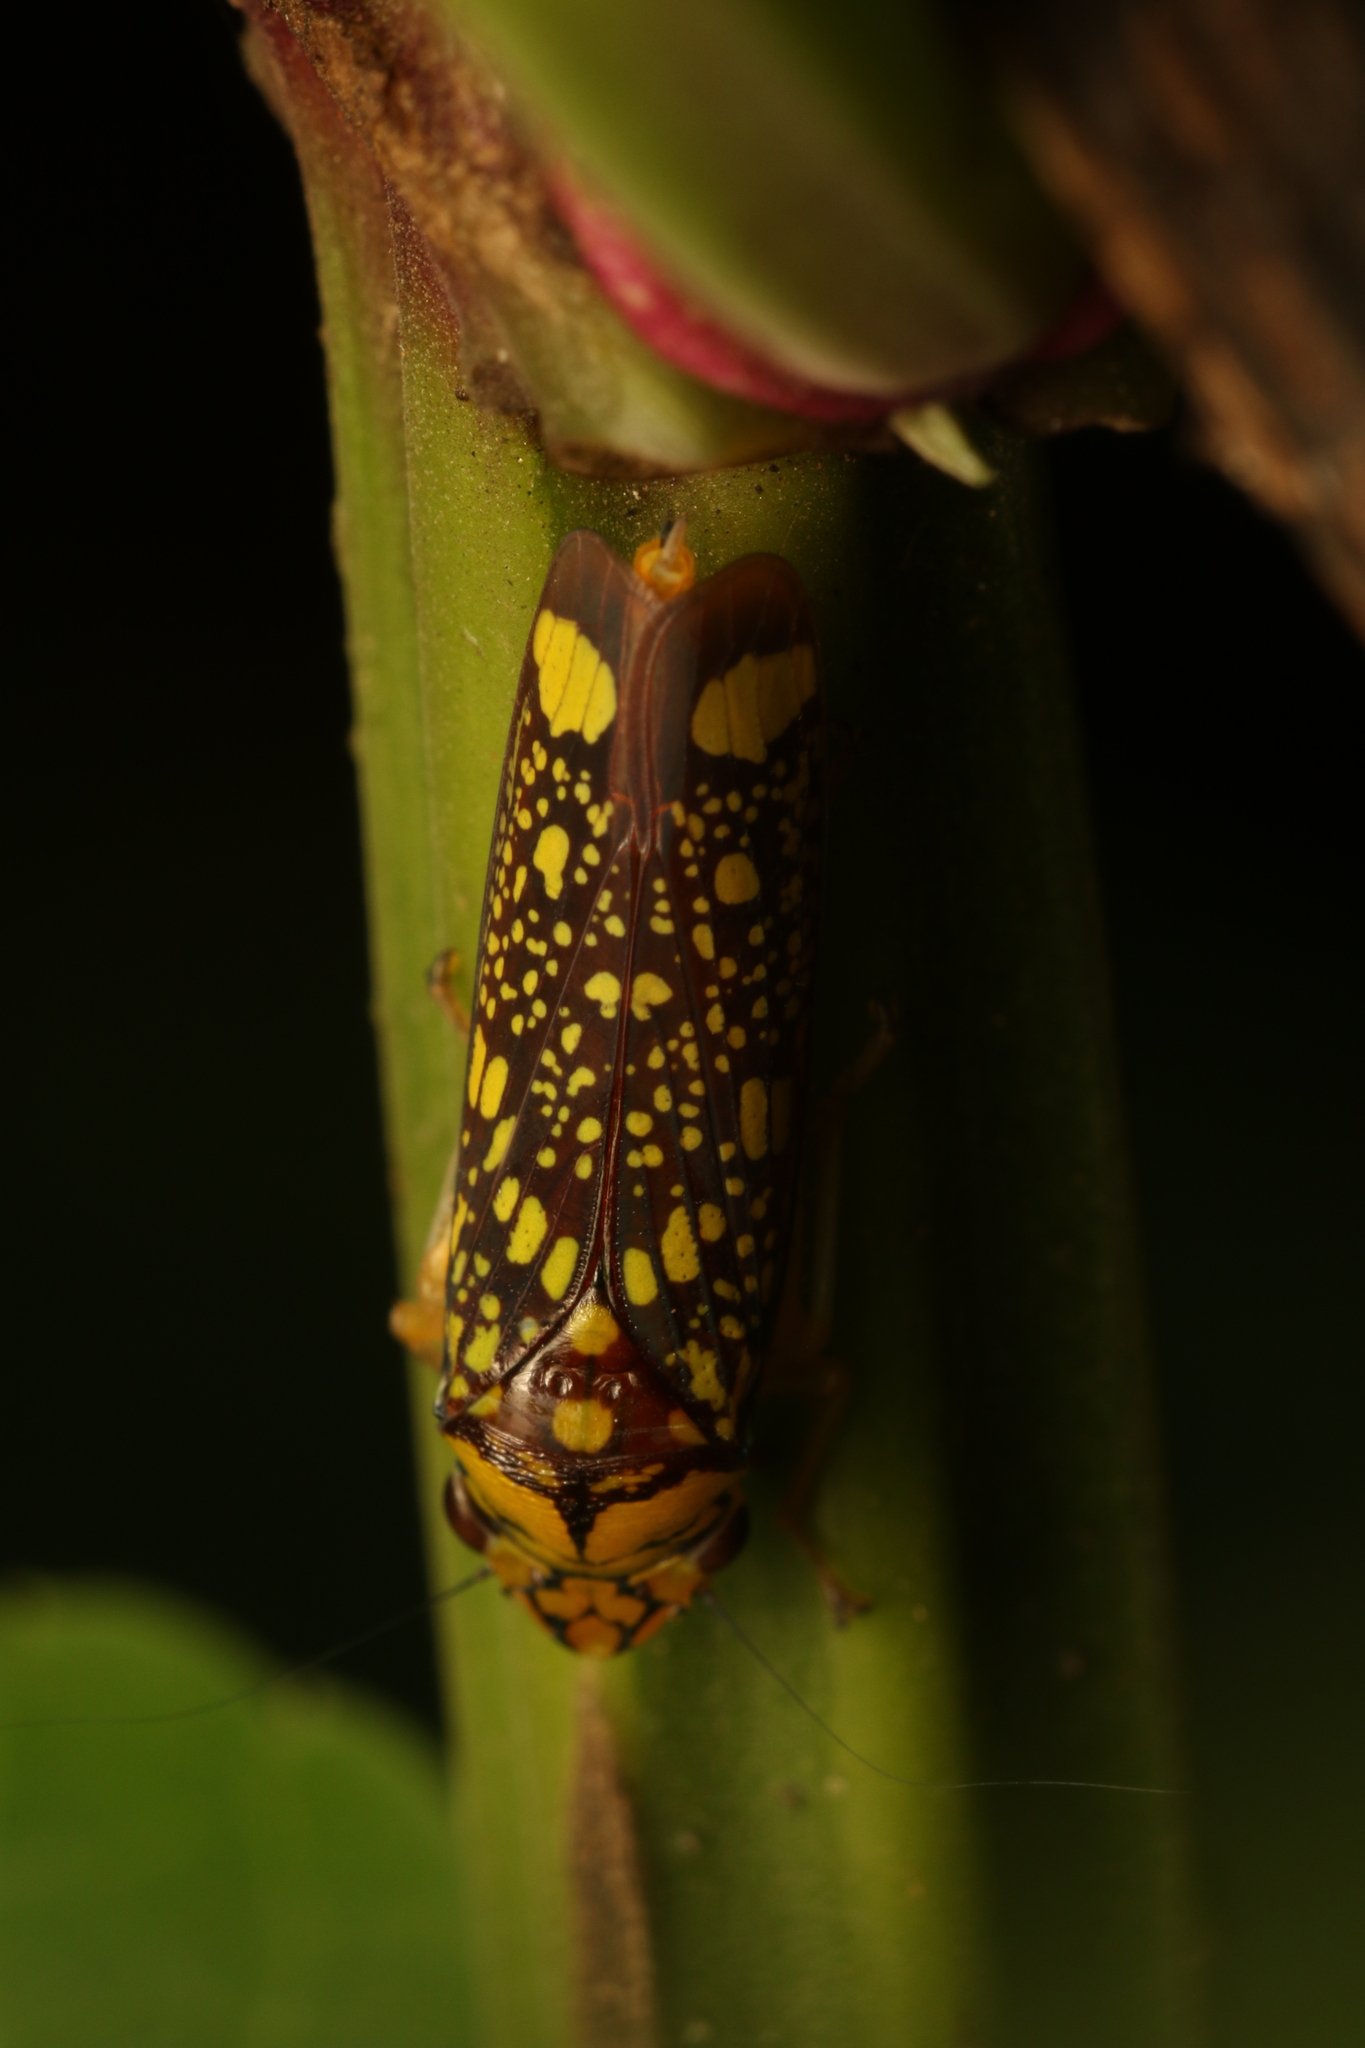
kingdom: Animalia
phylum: Arthropoda
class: Insecta
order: Hemiptera
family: Cicadellidae
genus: Aulacizes
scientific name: Aulacizes conspersa
